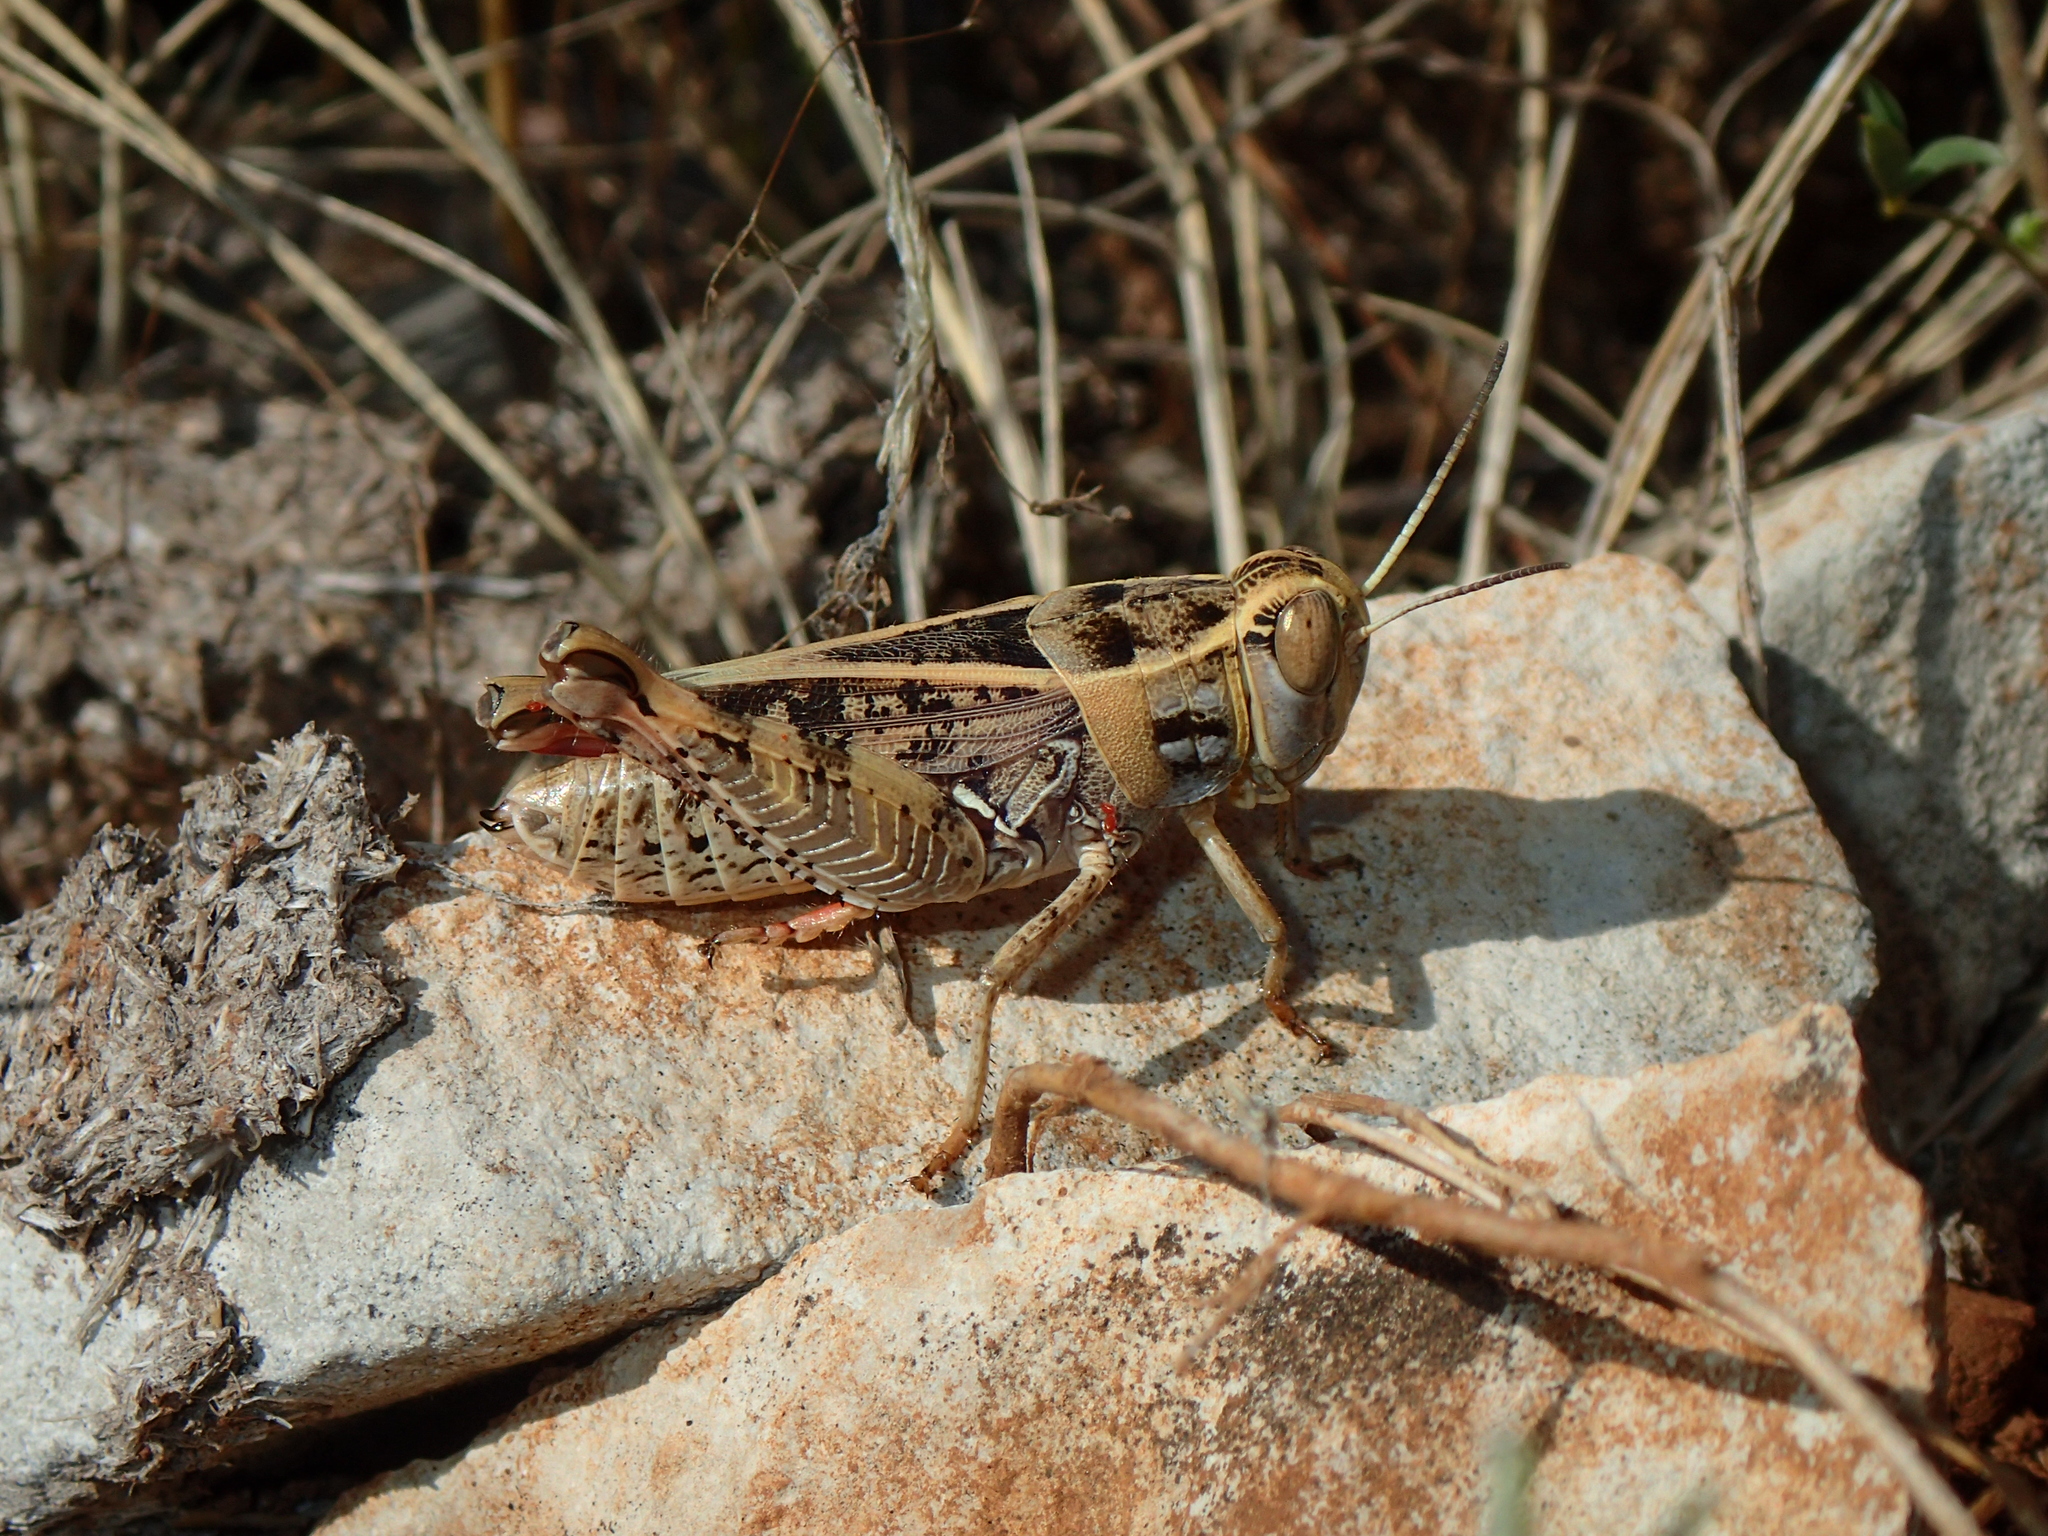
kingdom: Animalia
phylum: Arthropoda
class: Insecta
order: Orthoptera
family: Acrididae
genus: Calliptamus
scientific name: Calliptamus wattenwylianus
